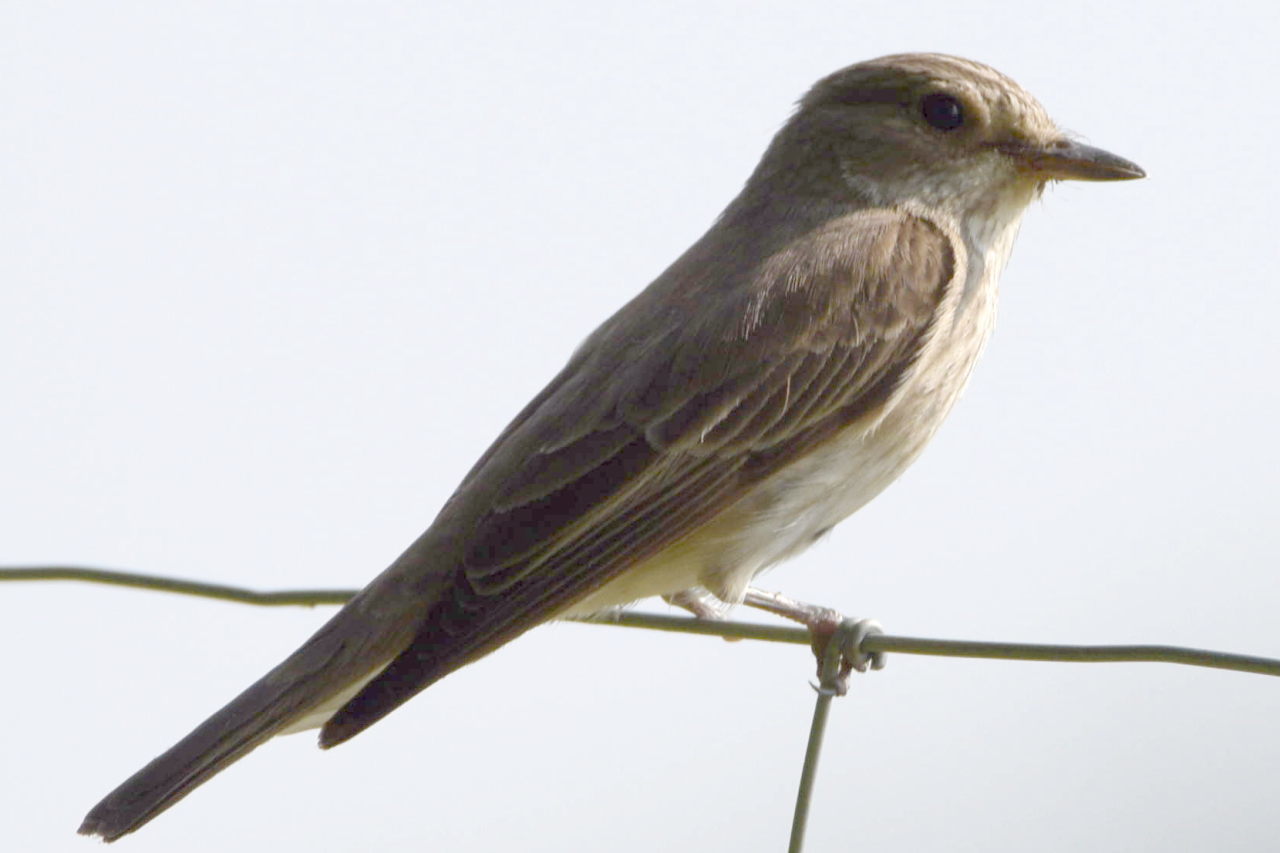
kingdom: Animalia
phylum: Chordata
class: Aves
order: Passeriformes
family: Muscicapidae
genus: Muscicapa
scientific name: Muscicapa striata
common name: Spotted flycatcher
